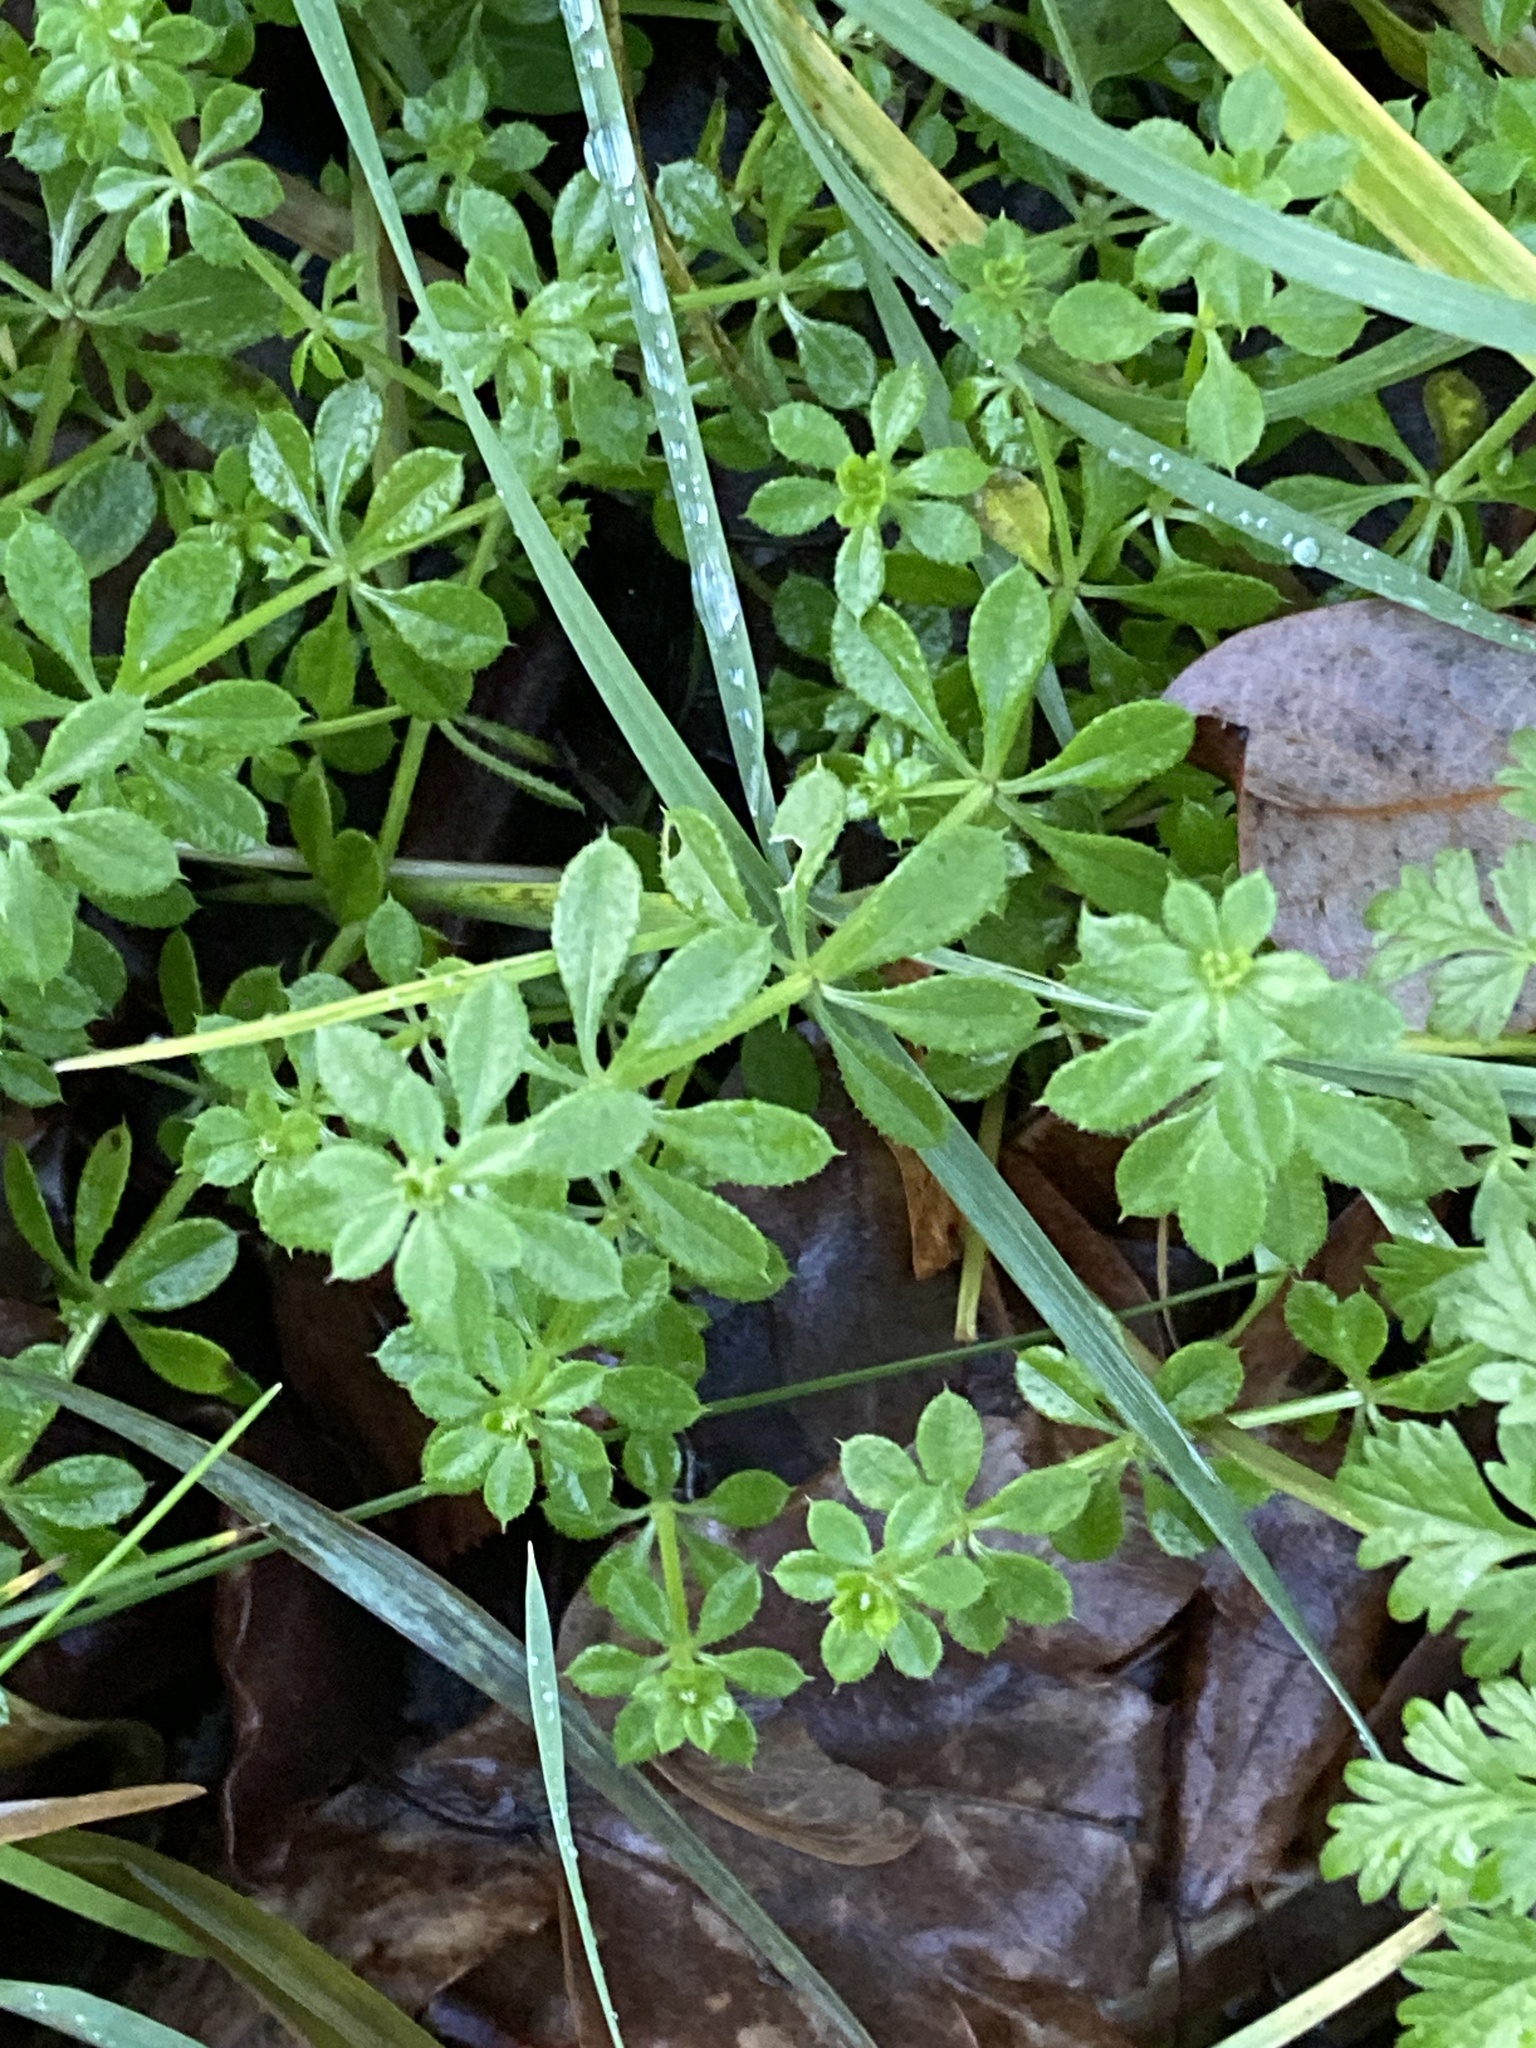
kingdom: Plantae
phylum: Tracheophyta
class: Magnoliopsida
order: Gentianales
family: Rubiaceae
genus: Galium
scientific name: Galium aparine
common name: Cleavers
